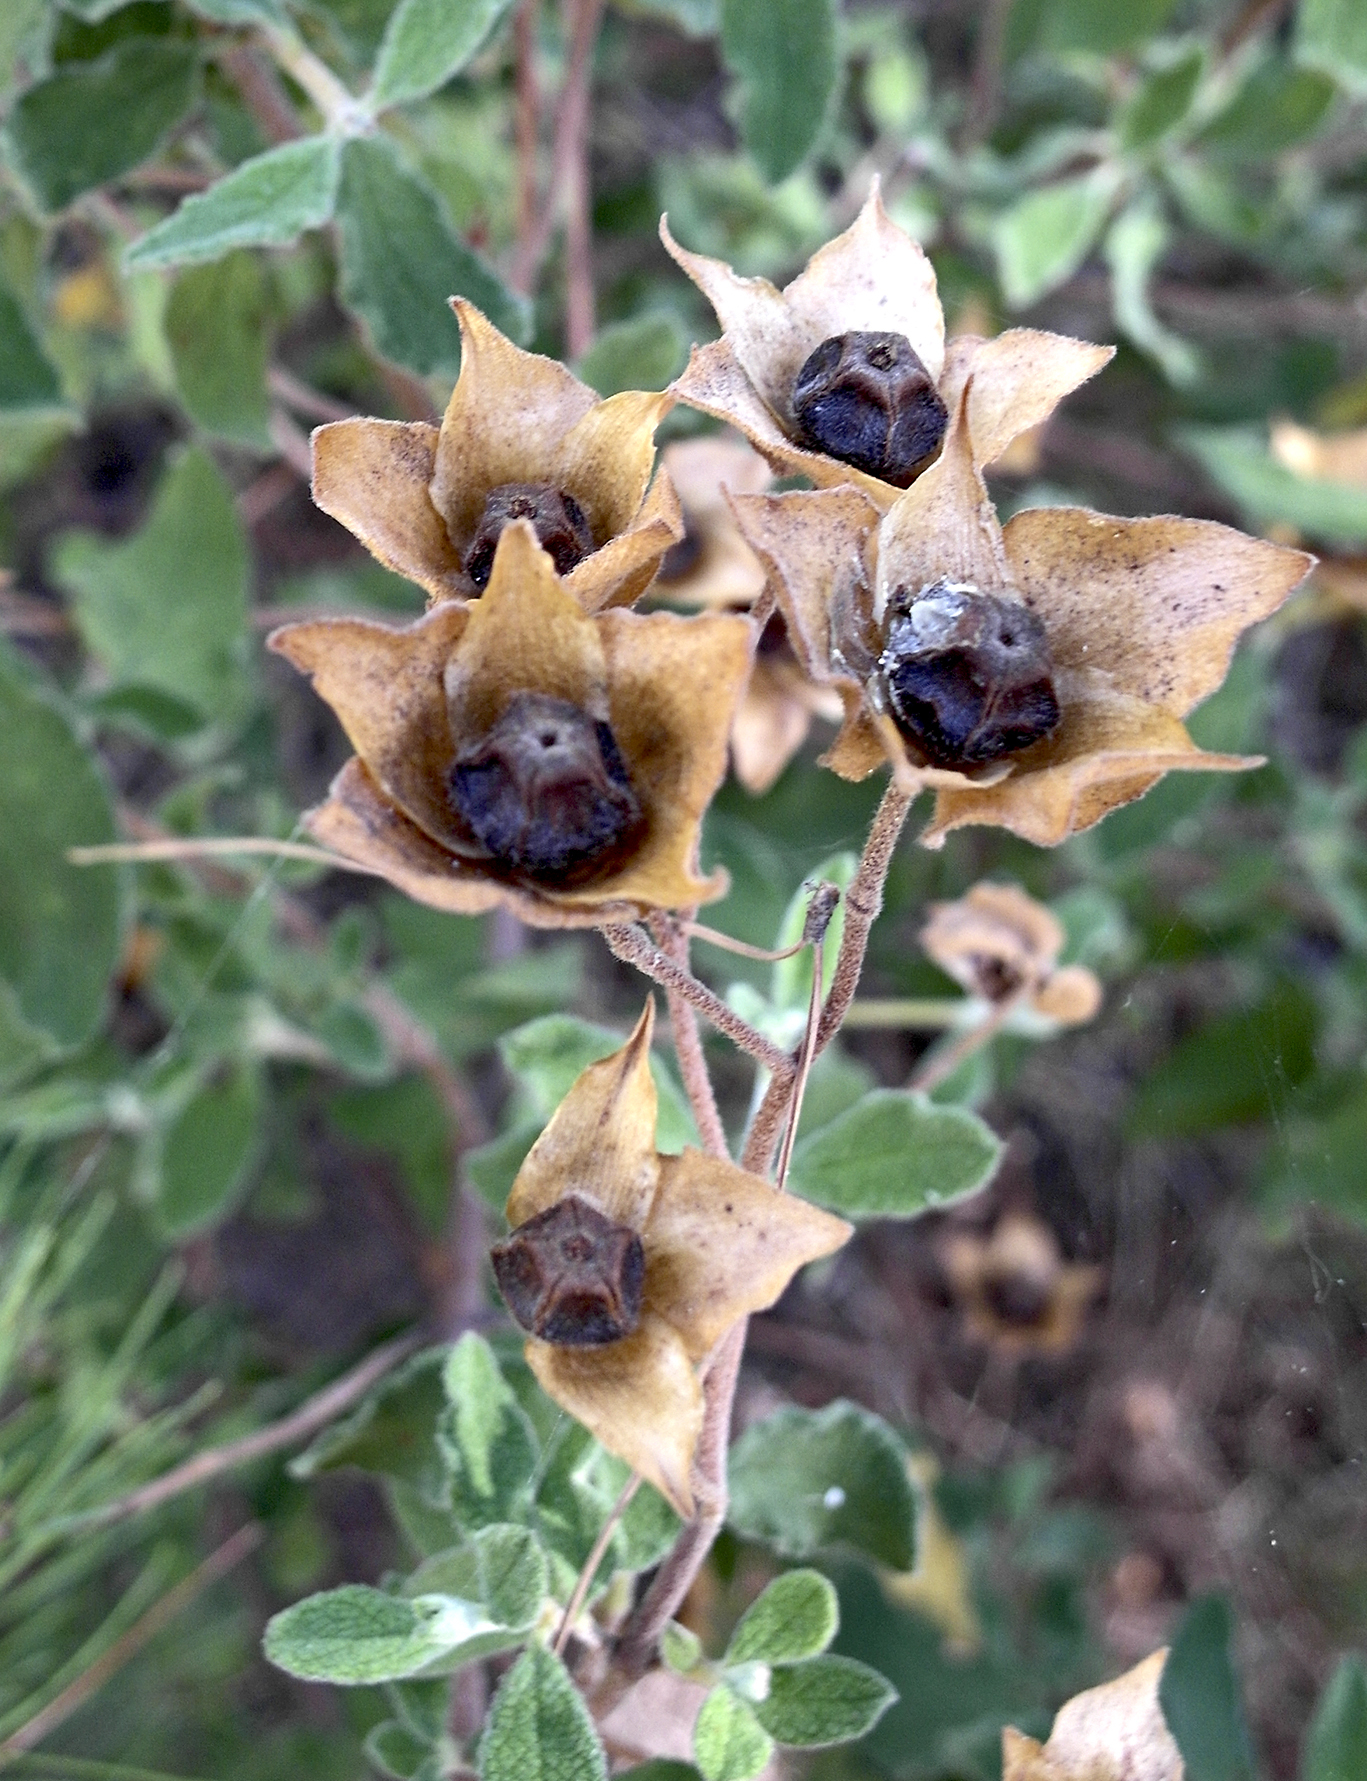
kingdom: Plantae
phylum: Tracheophyta
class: Magnoliopsida
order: Malvales
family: Cistaceae
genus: Cistus
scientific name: Cistus salviifolius
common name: Salvia cistus
